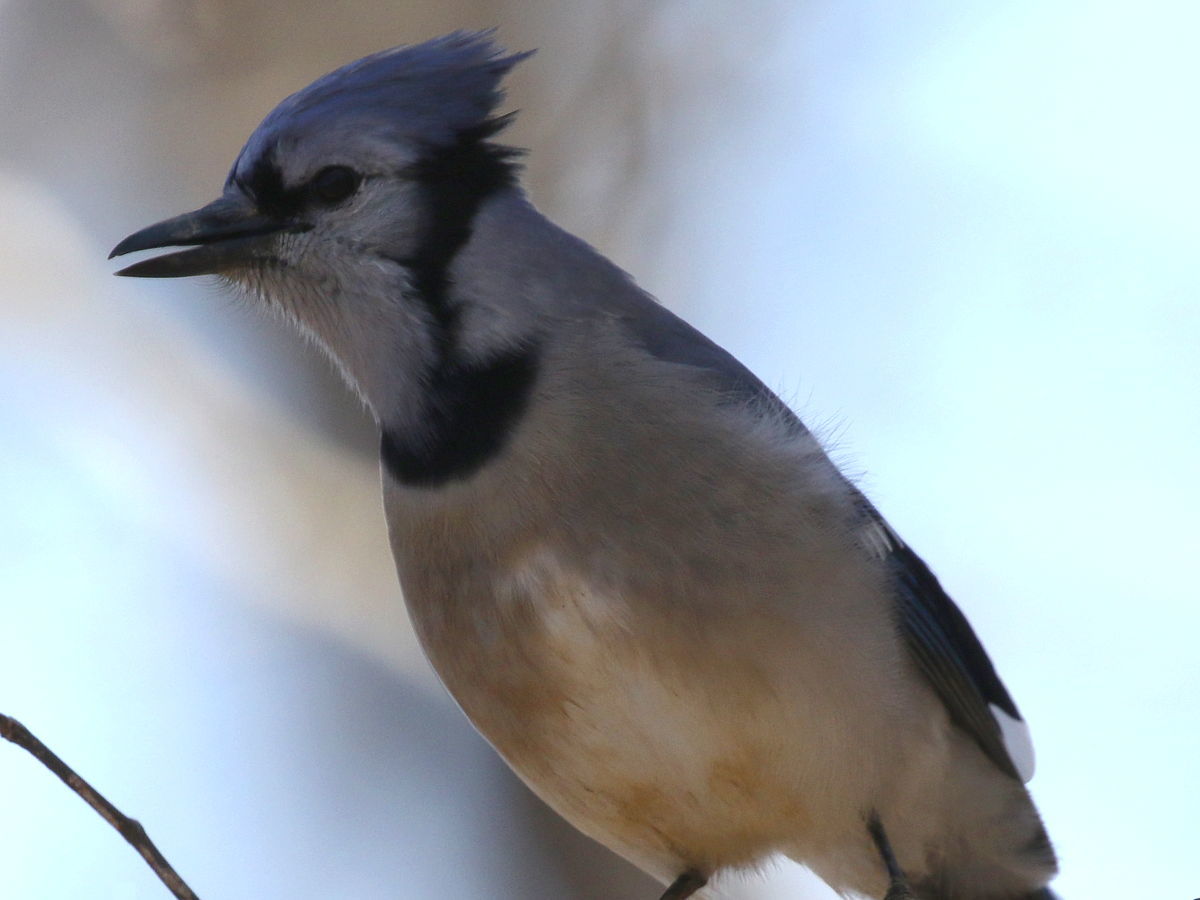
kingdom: Animalia
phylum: Chordata
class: Aves
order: Passeriformes
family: Corvidae
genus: Cyanocitta
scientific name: Cyanocitta cristata
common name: Blue jay
